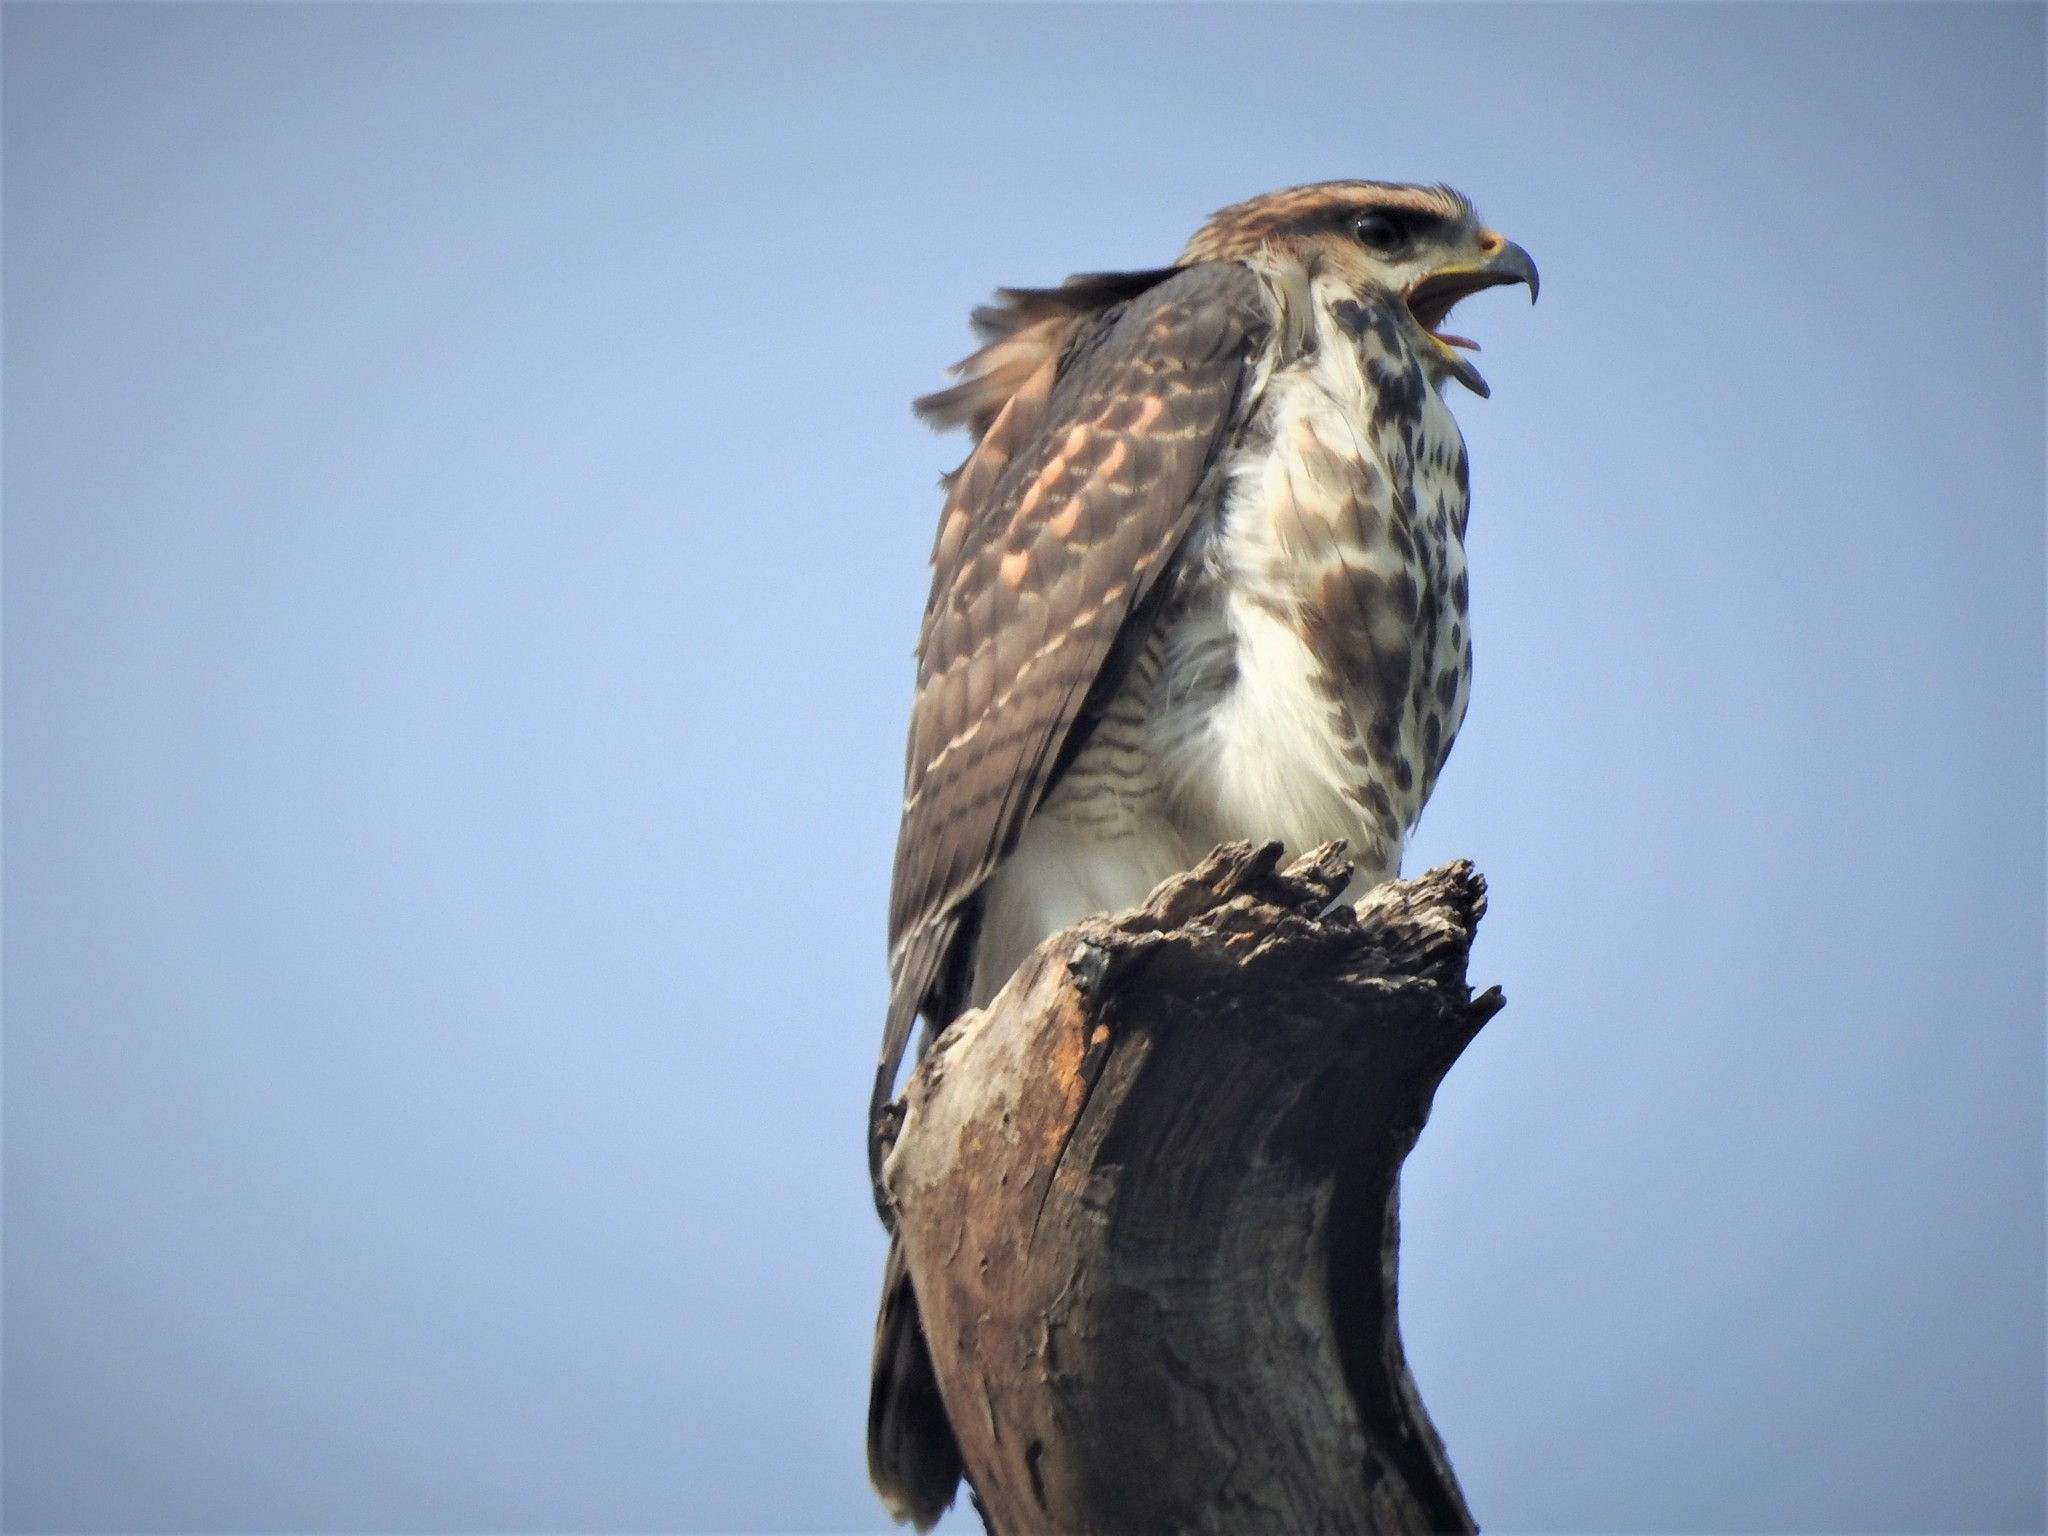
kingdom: Animalia
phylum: Chordata
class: Aves
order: Accipitriformes
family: Accipitridae
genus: Buteo
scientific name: Buteo nitidus
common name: Grey-lined hawk
